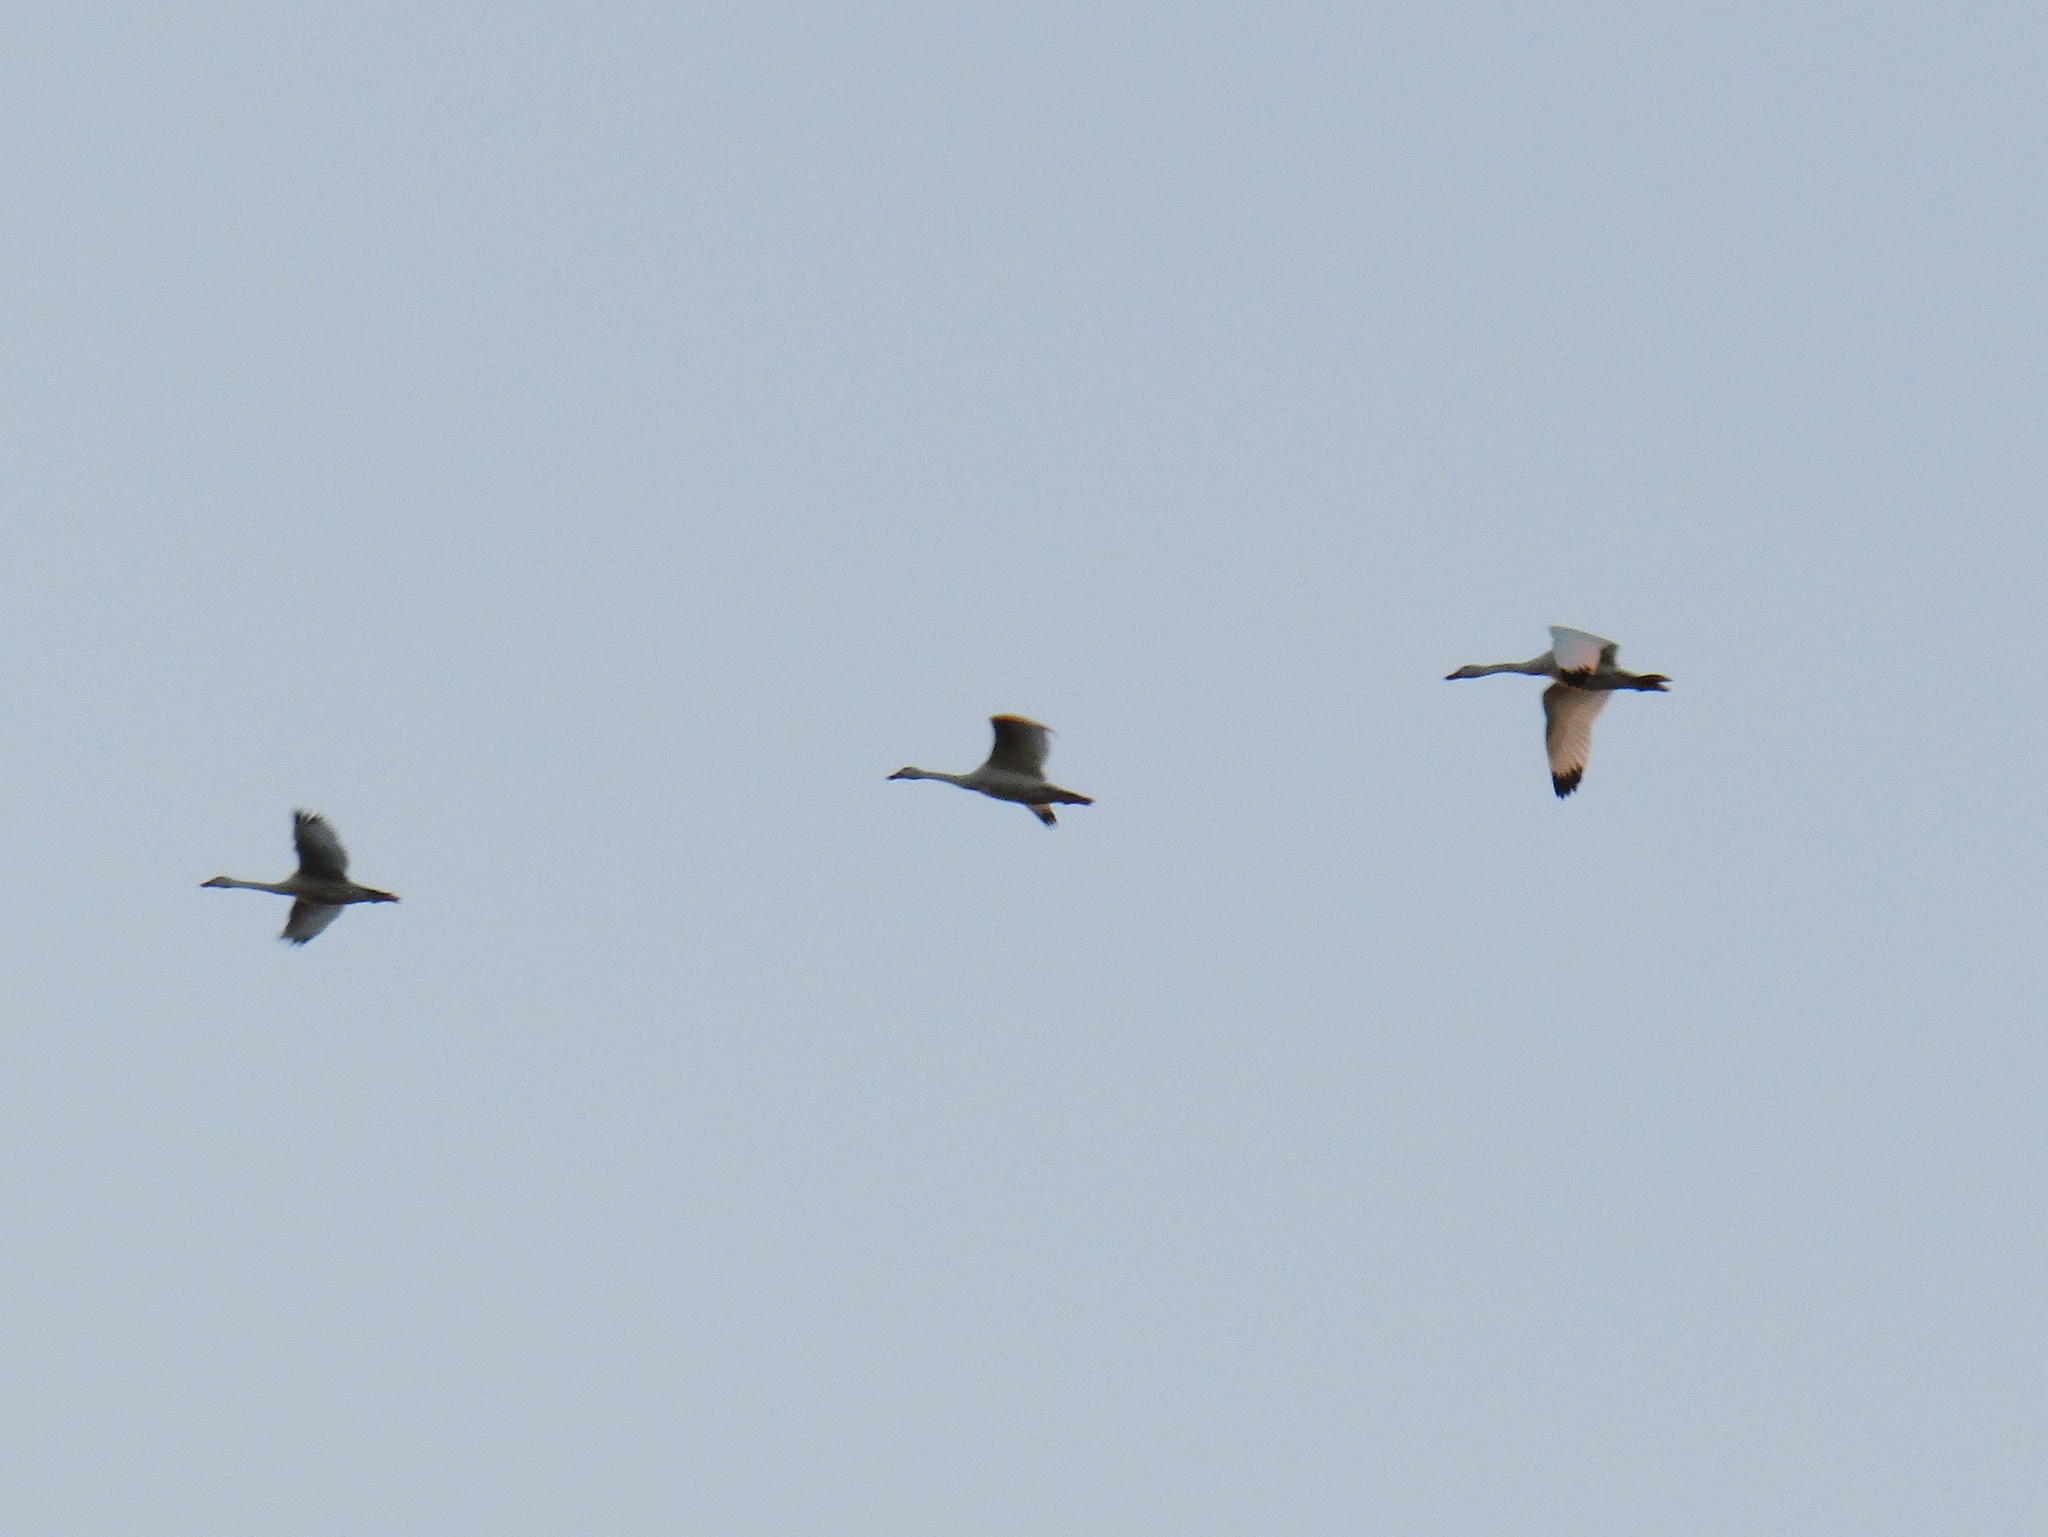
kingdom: Animalia
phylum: Chordata
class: Aves
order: Anseriformes
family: Anatidae
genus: Coscoroba
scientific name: Coscoroba coscoroba
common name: Coscoroba swan
